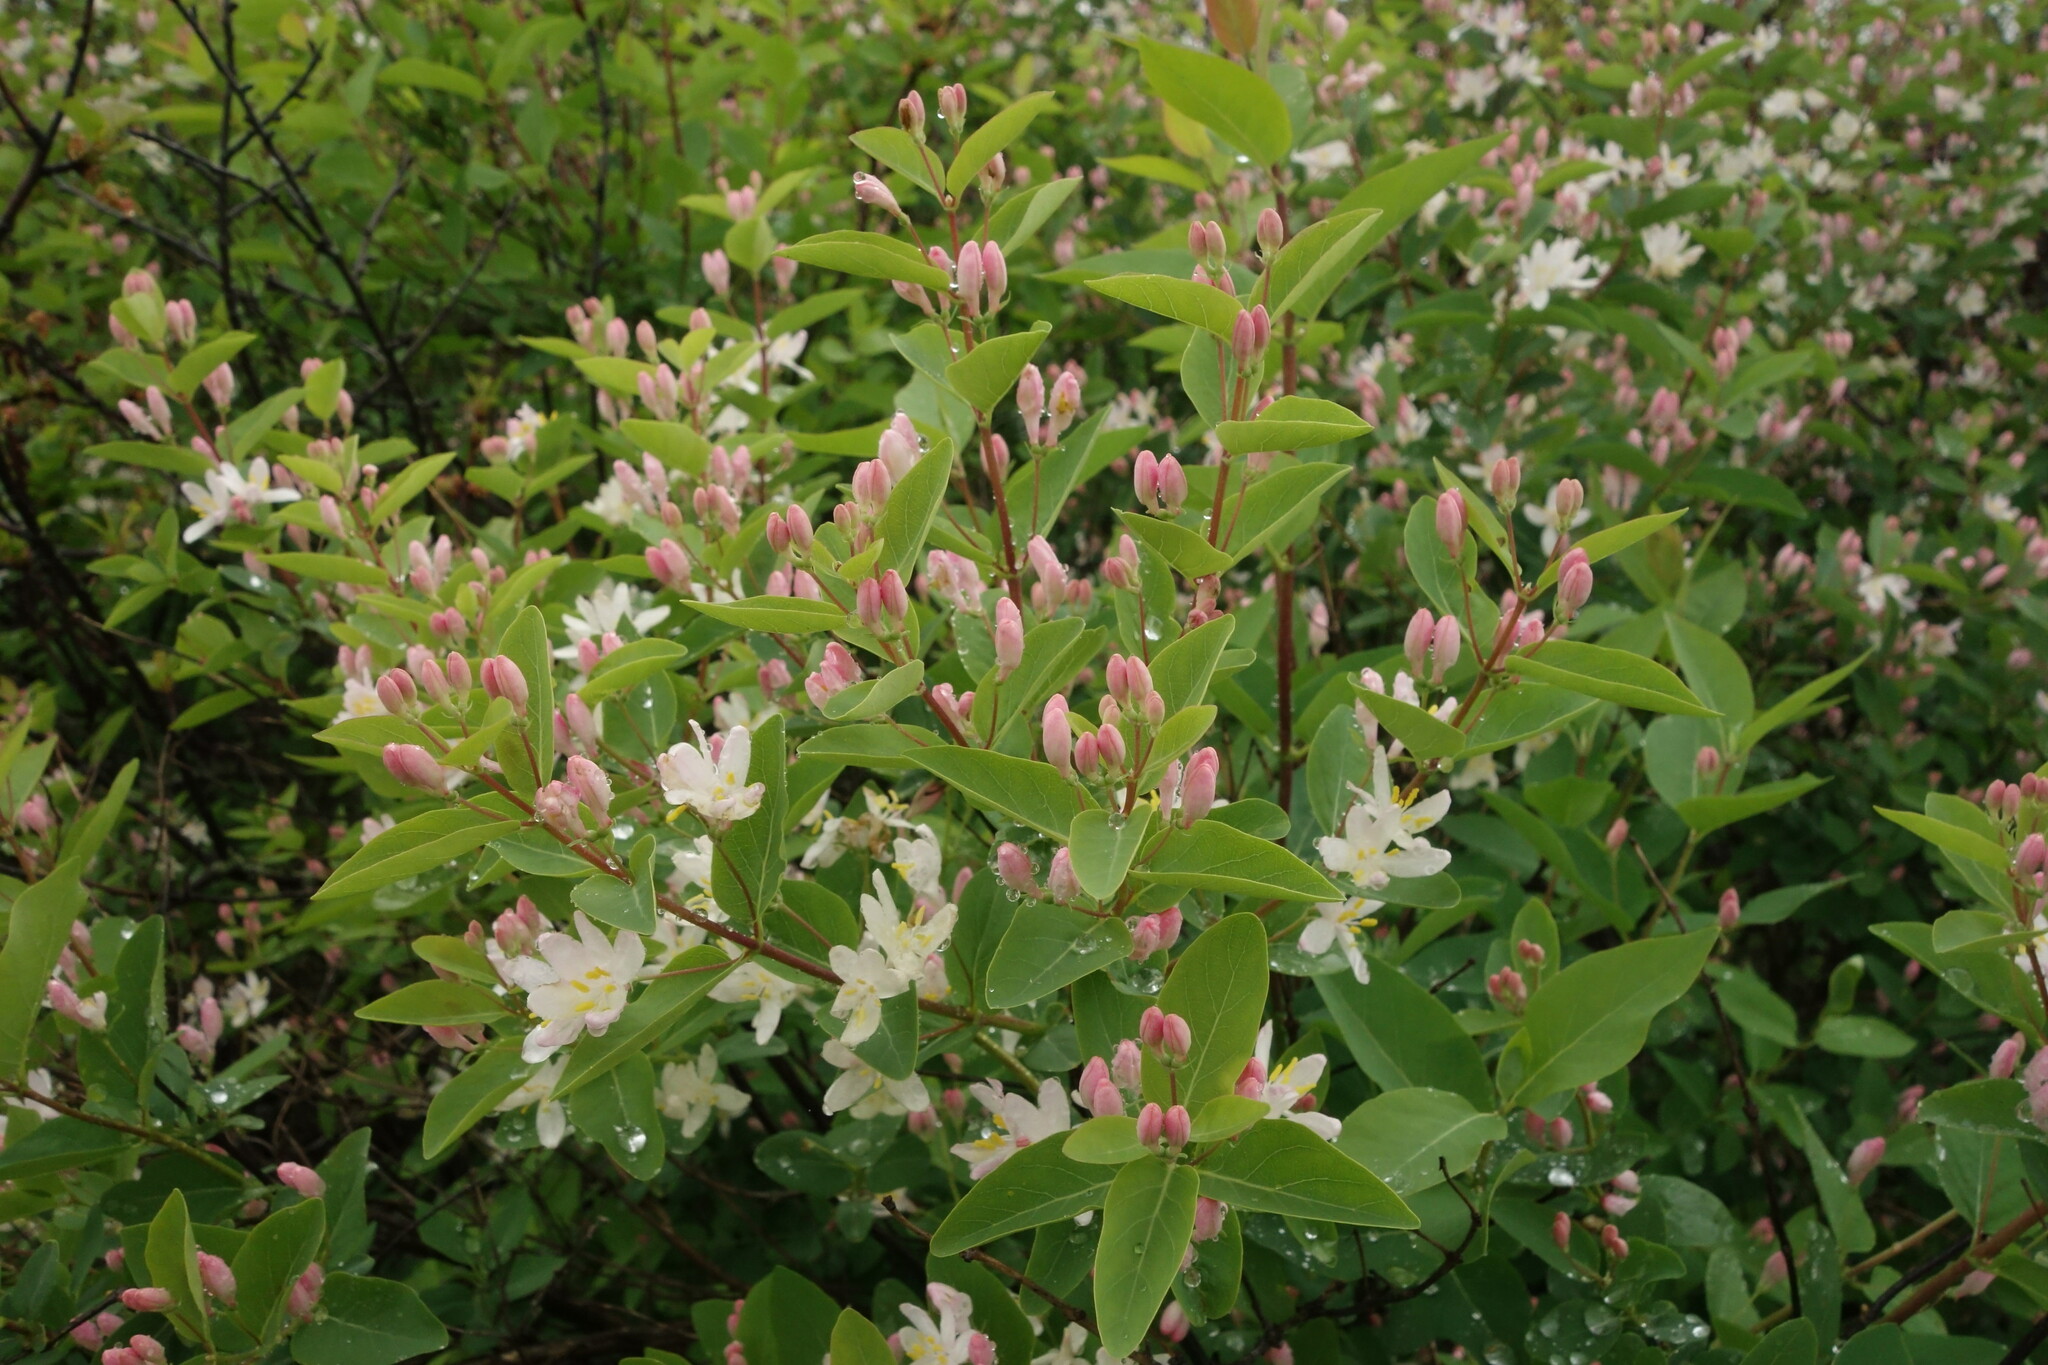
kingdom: Plantae
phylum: Tracheophyta
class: Magnoliopsida
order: Dipsacales
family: Caprifoliaceae
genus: Lonicera
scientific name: Lonicera tatarica
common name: Tatarian honeysuckle
